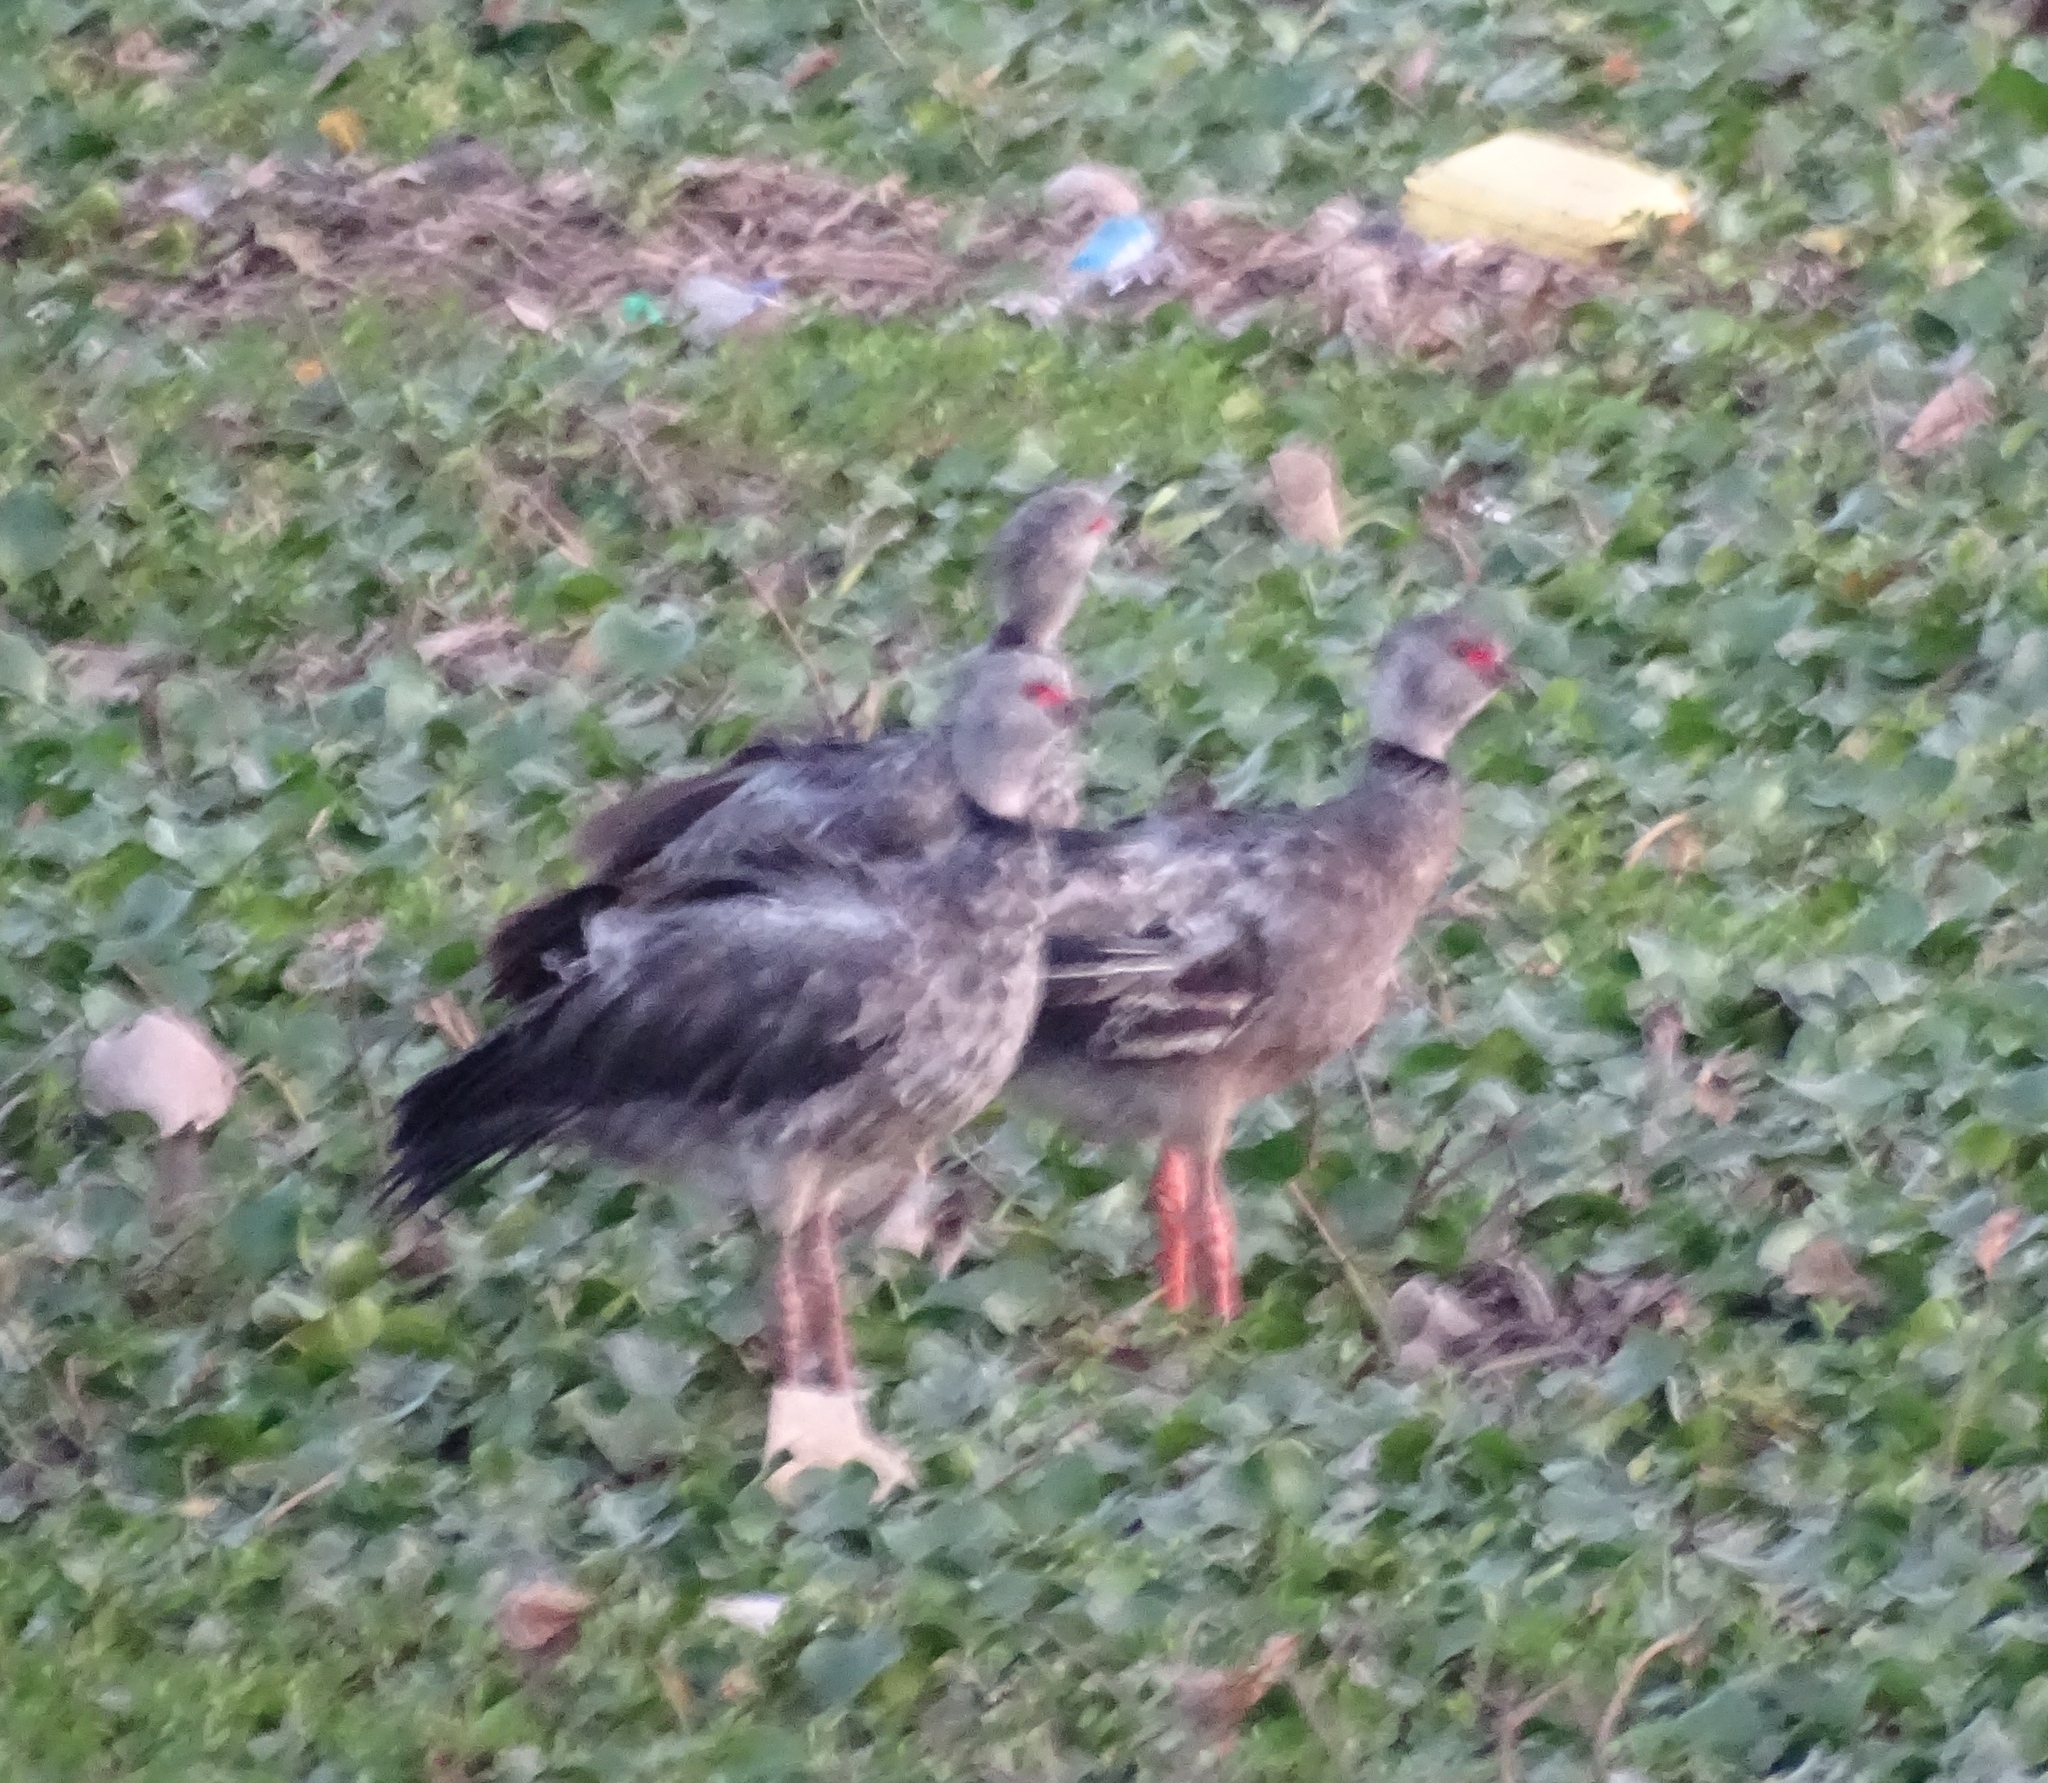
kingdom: Animalia
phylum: Chordata
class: Aves
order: Anseriformes
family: Anhimidae
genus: Chauna
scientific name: Chauna torquata
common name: Southern screamer
